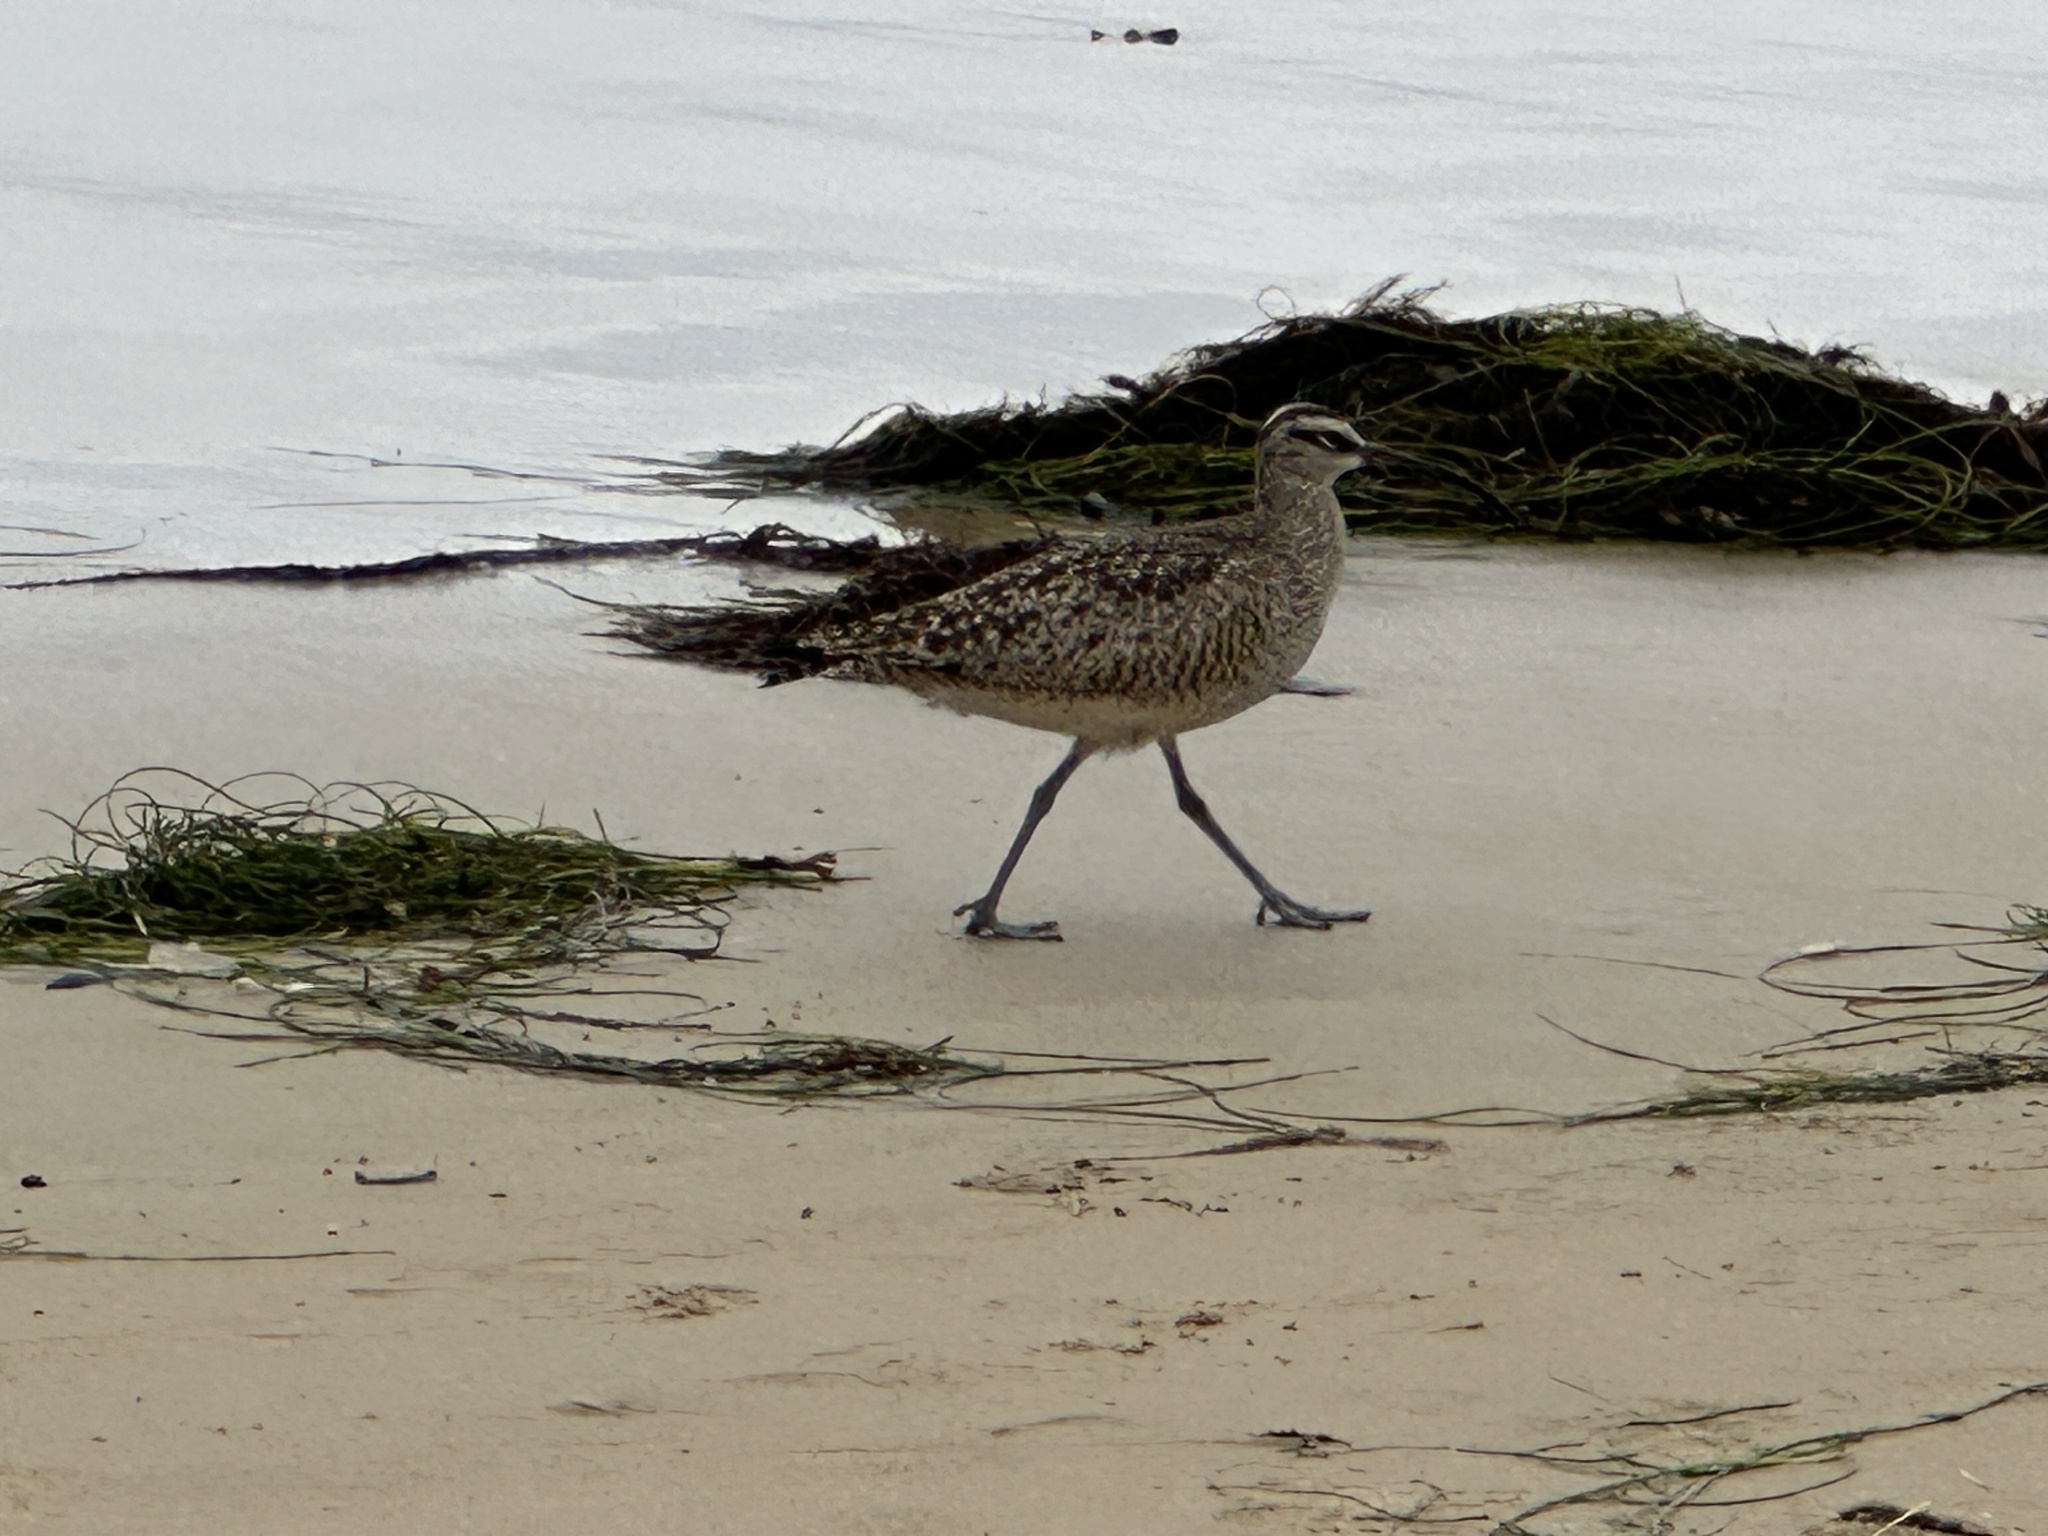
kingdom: Animalia
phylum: Chordata
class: Aves
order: Charadriiformes
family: Scolopacidae
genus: Numenius
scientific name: Numenius phaeopus
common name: Whimbrel
